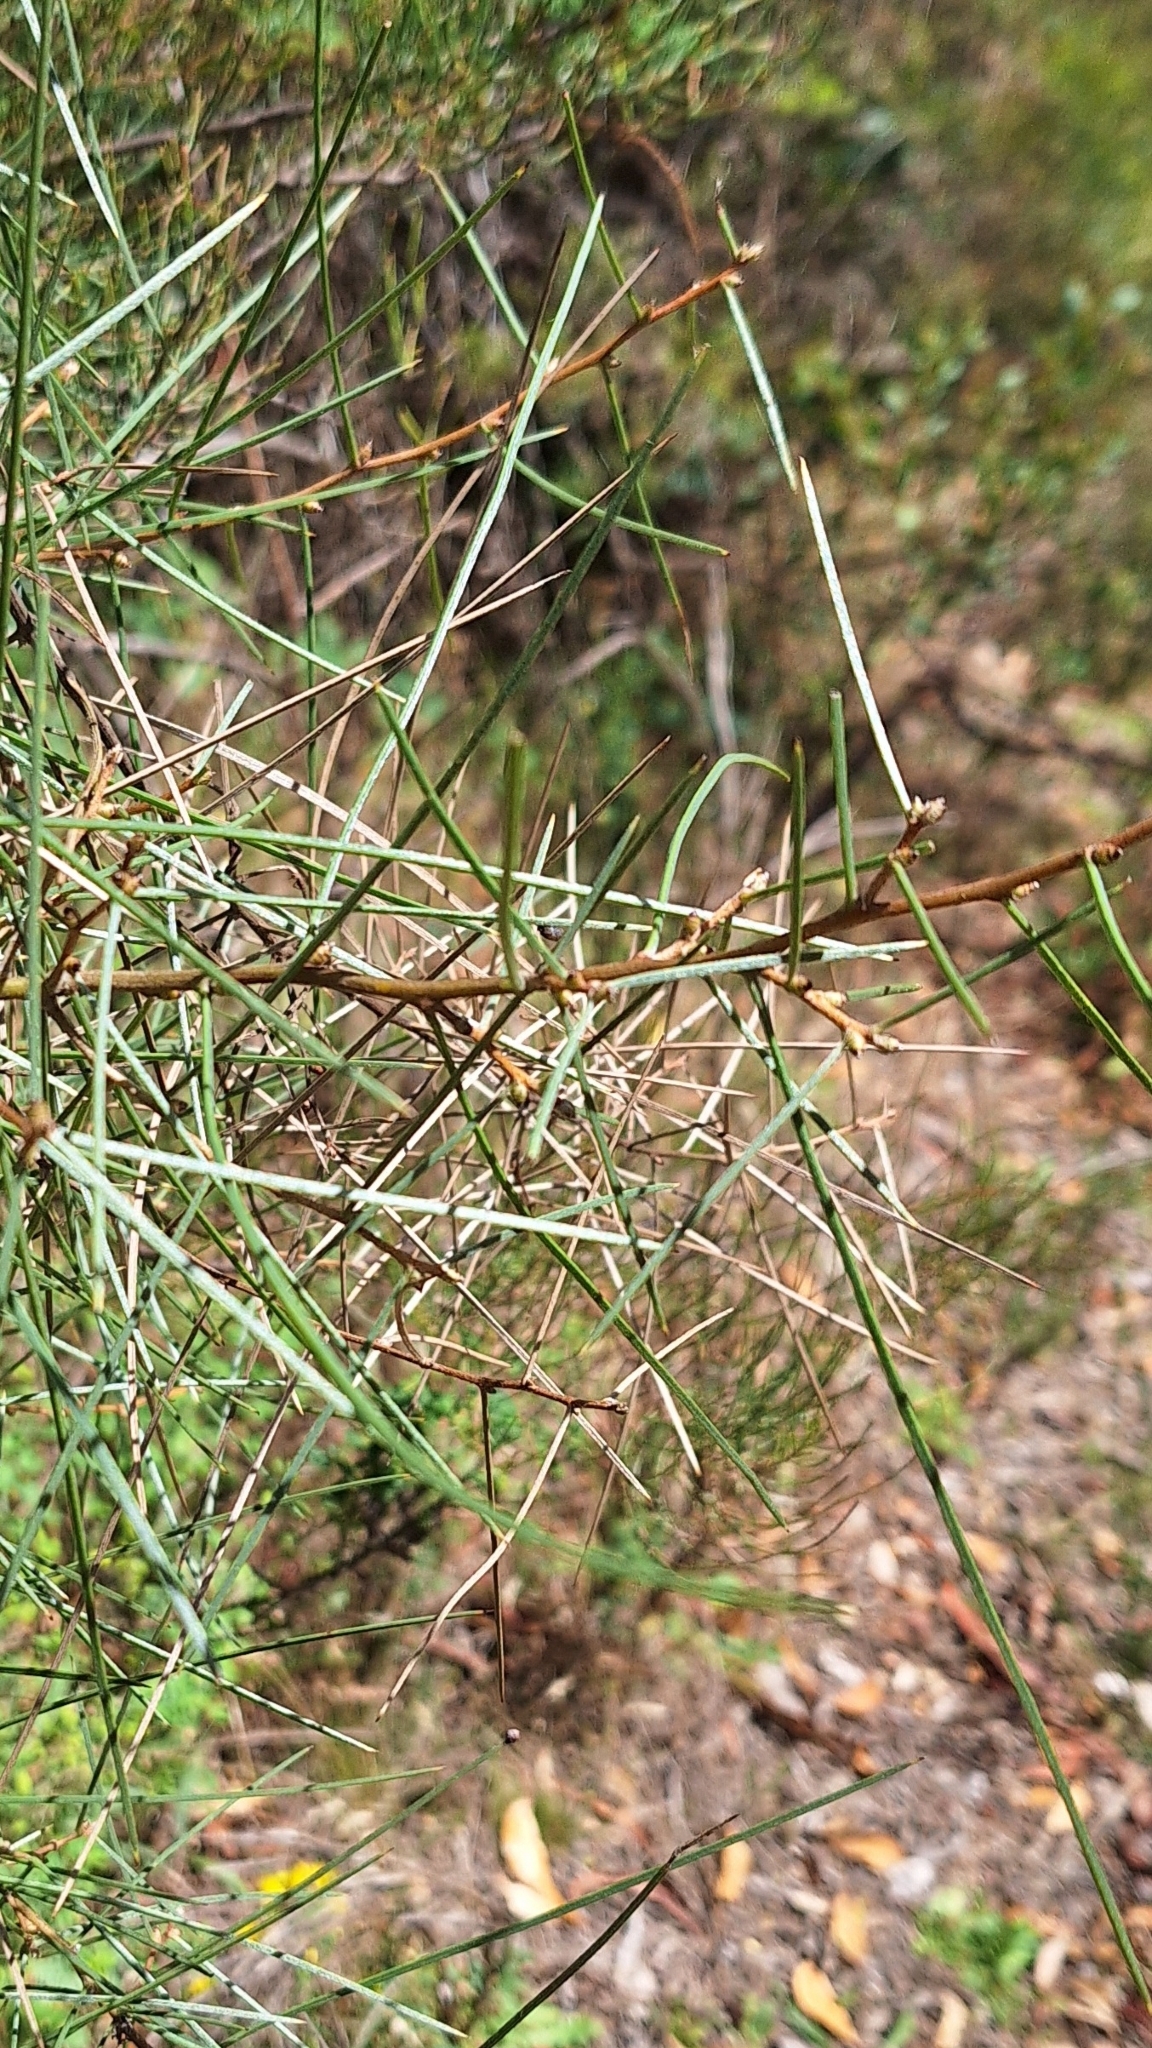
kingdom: Plantae
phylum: Tracheophyta
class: Magnoliopsida
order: Proteales
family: Proteaceae
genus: Hakea
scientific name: Hakea carinata
